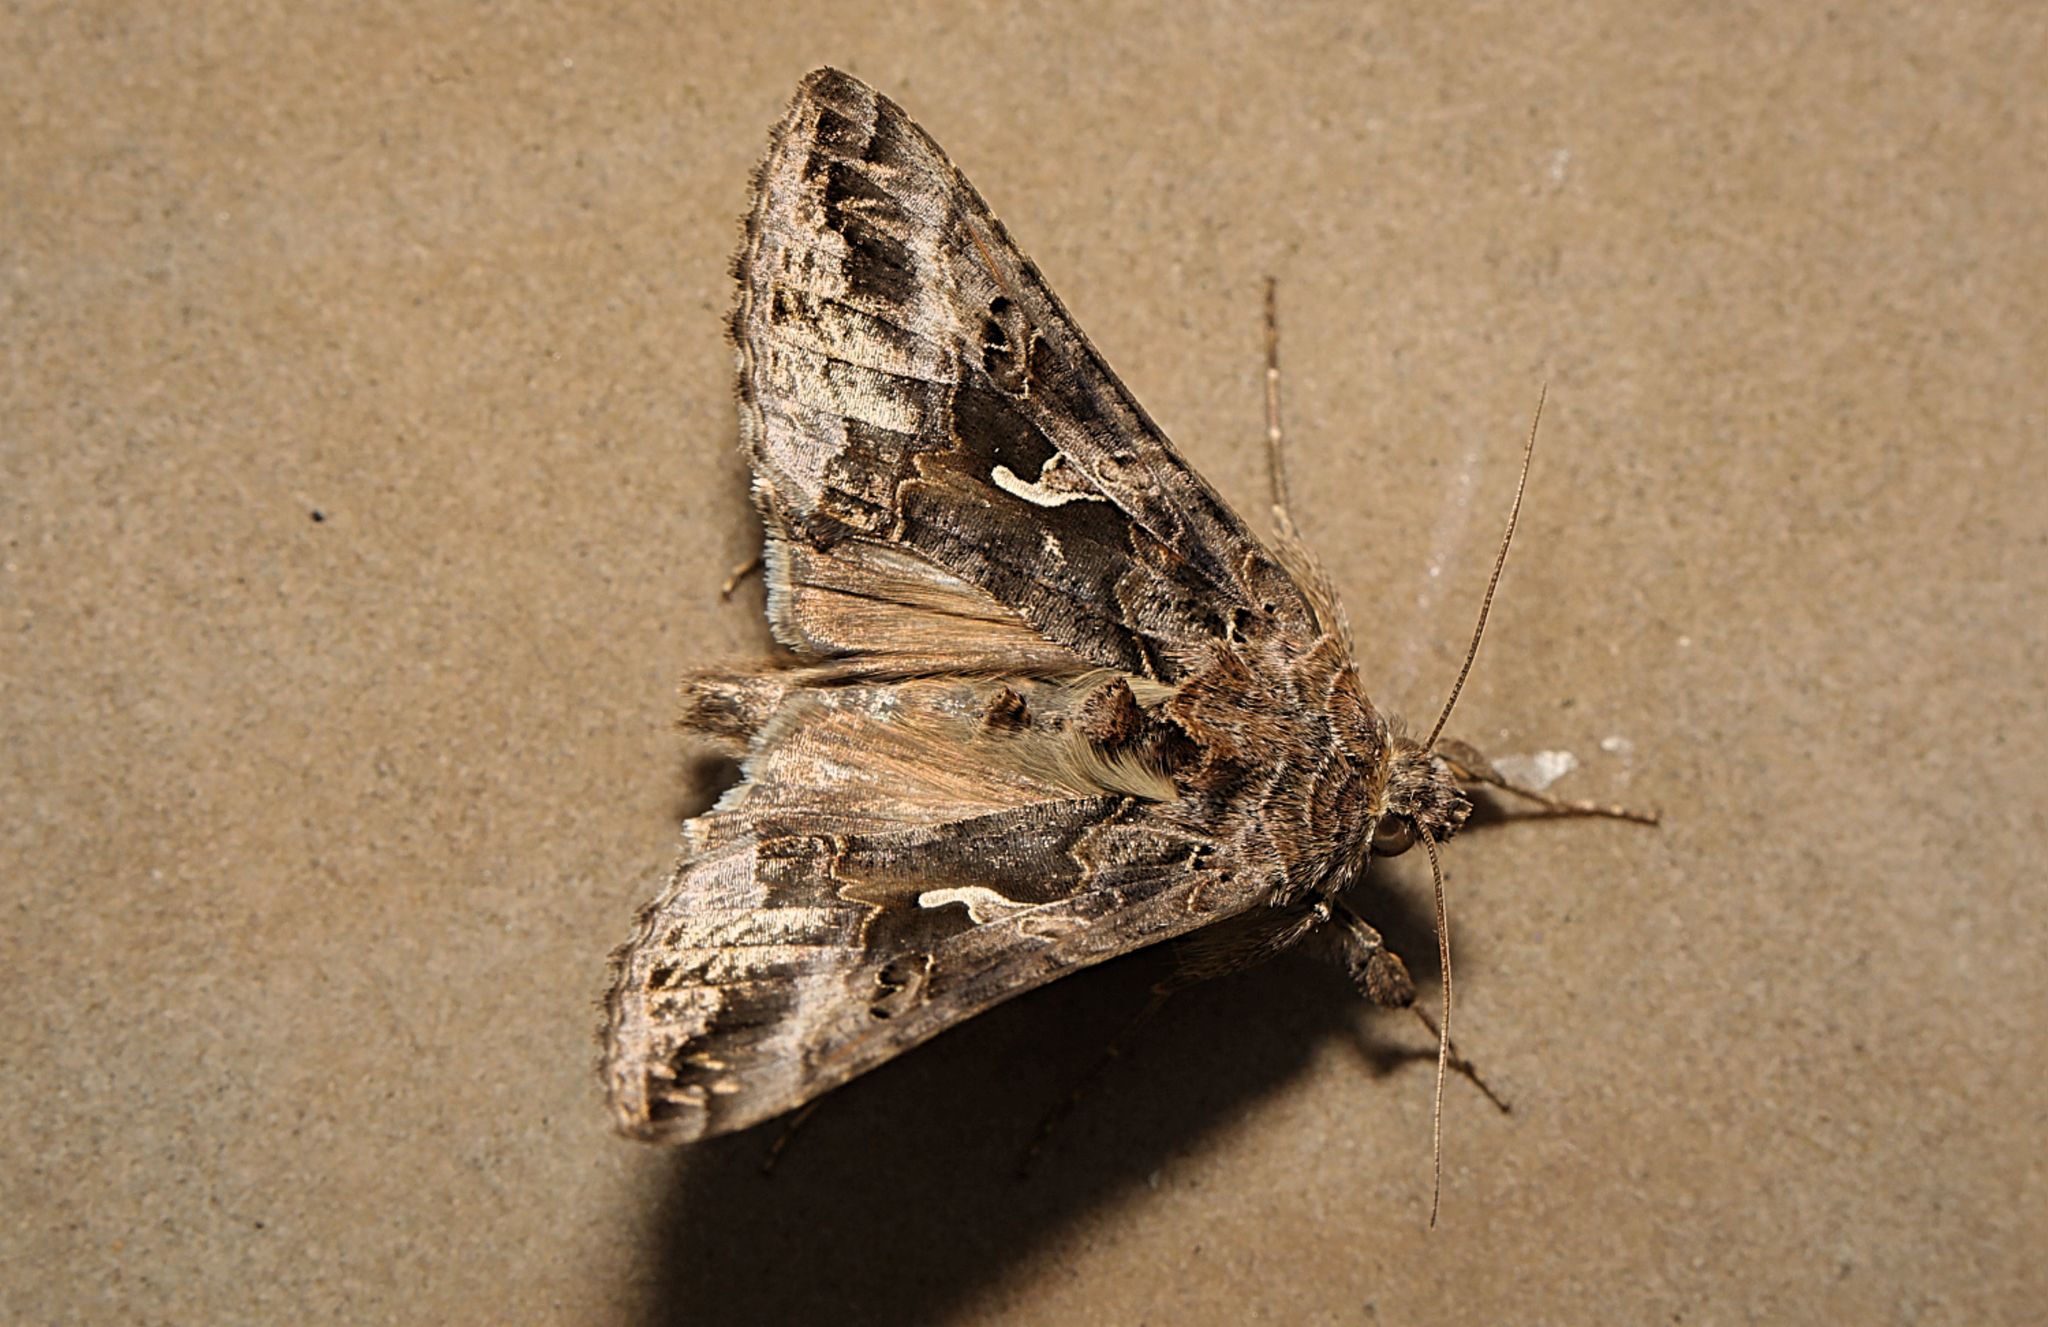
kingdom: Animalia
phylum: Arthropoda
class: Insecta
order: Lepidoptera
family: Noctuidae
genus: Autographa
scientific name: Autographa gamma
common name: Silver y
